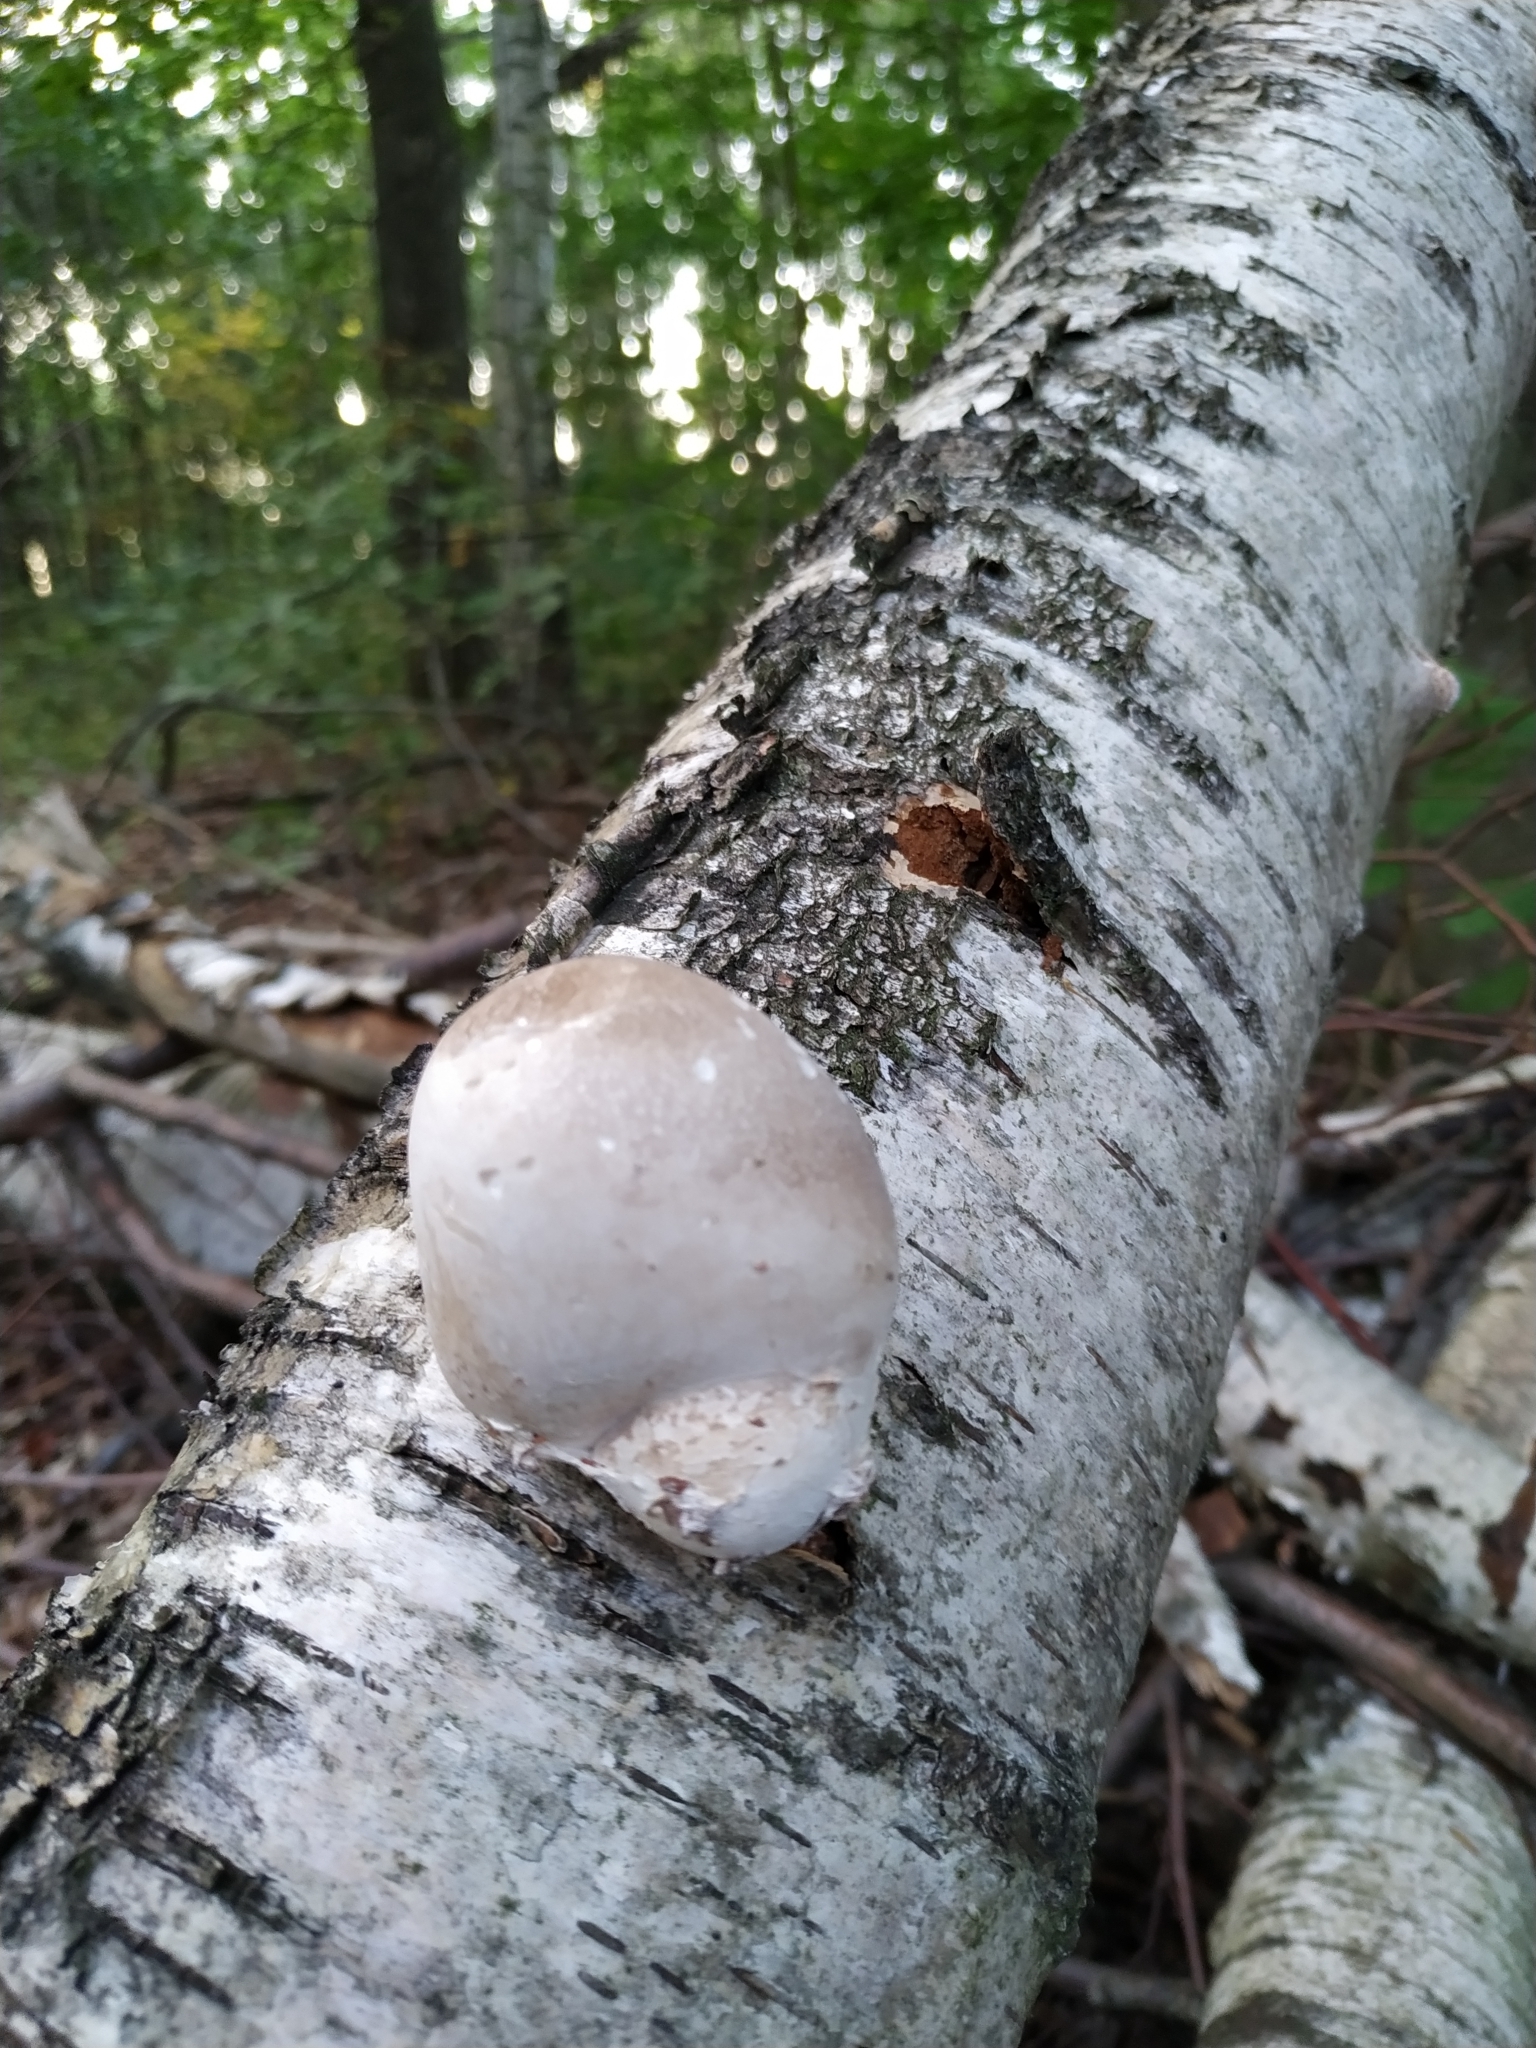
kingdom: Fungi
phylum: Basidiomycota
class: Agaricomycetes
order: Polyporales
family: Fomitopsidaceae
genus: Fomitopsis
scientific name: Fomitopsis betulina
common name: Birch polypore
